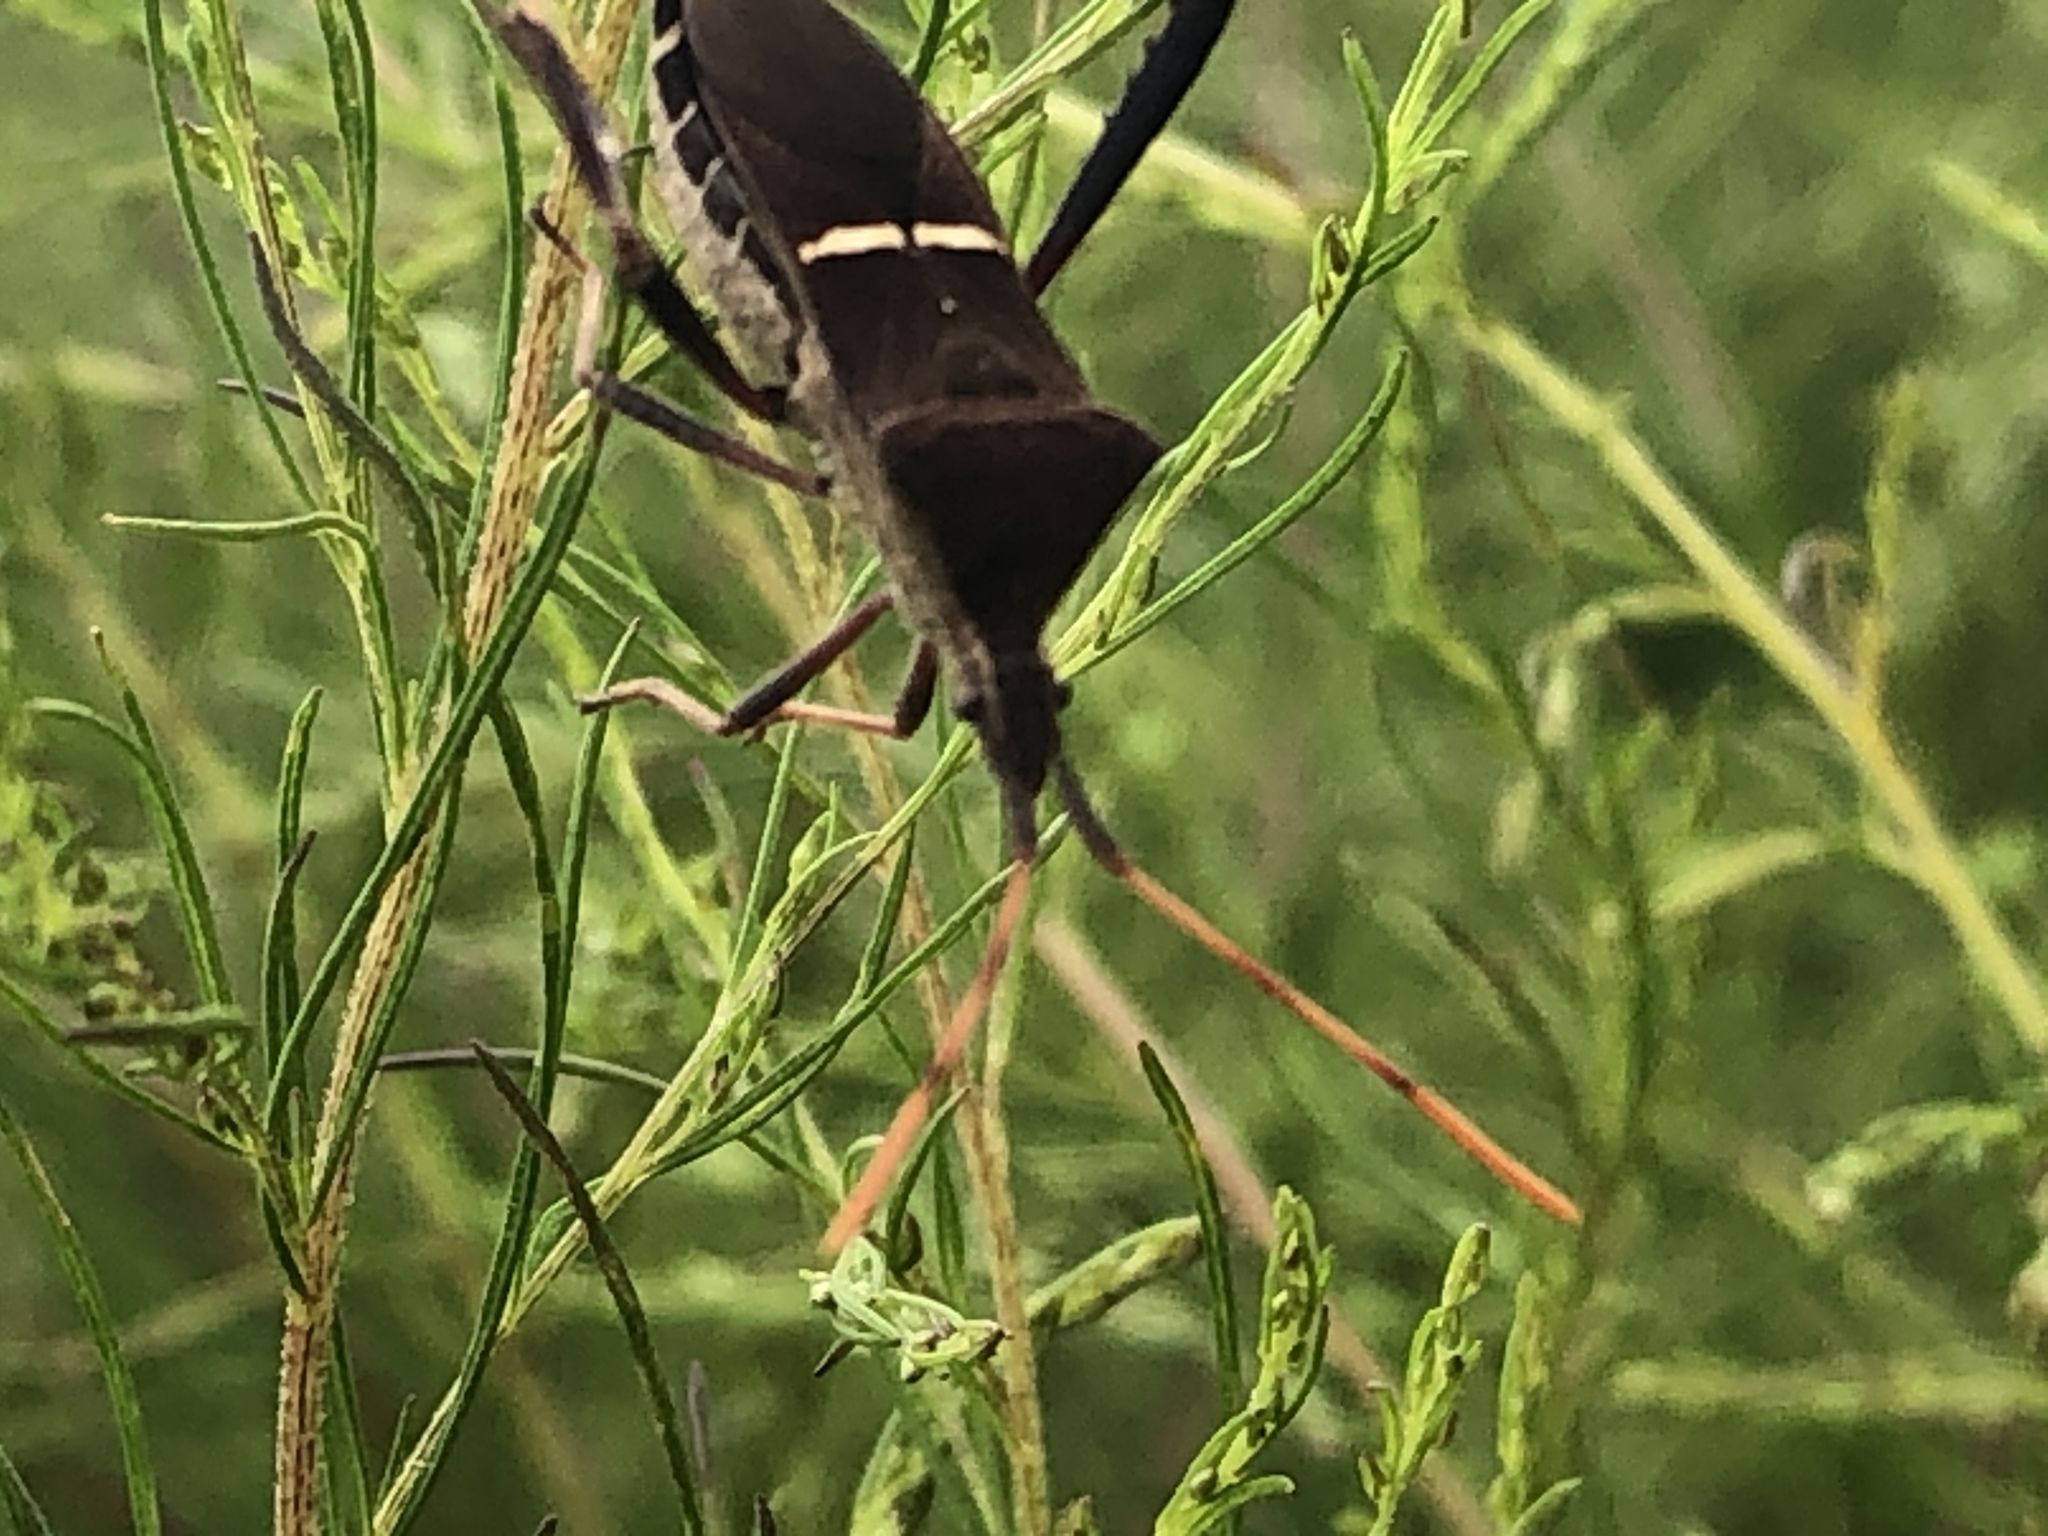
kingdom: Animalia
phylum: Arthropoda
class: Insecta
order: Hemiptera
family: Coreidae
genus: Leptoglossus
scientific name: Leptoglossus phyllopus
